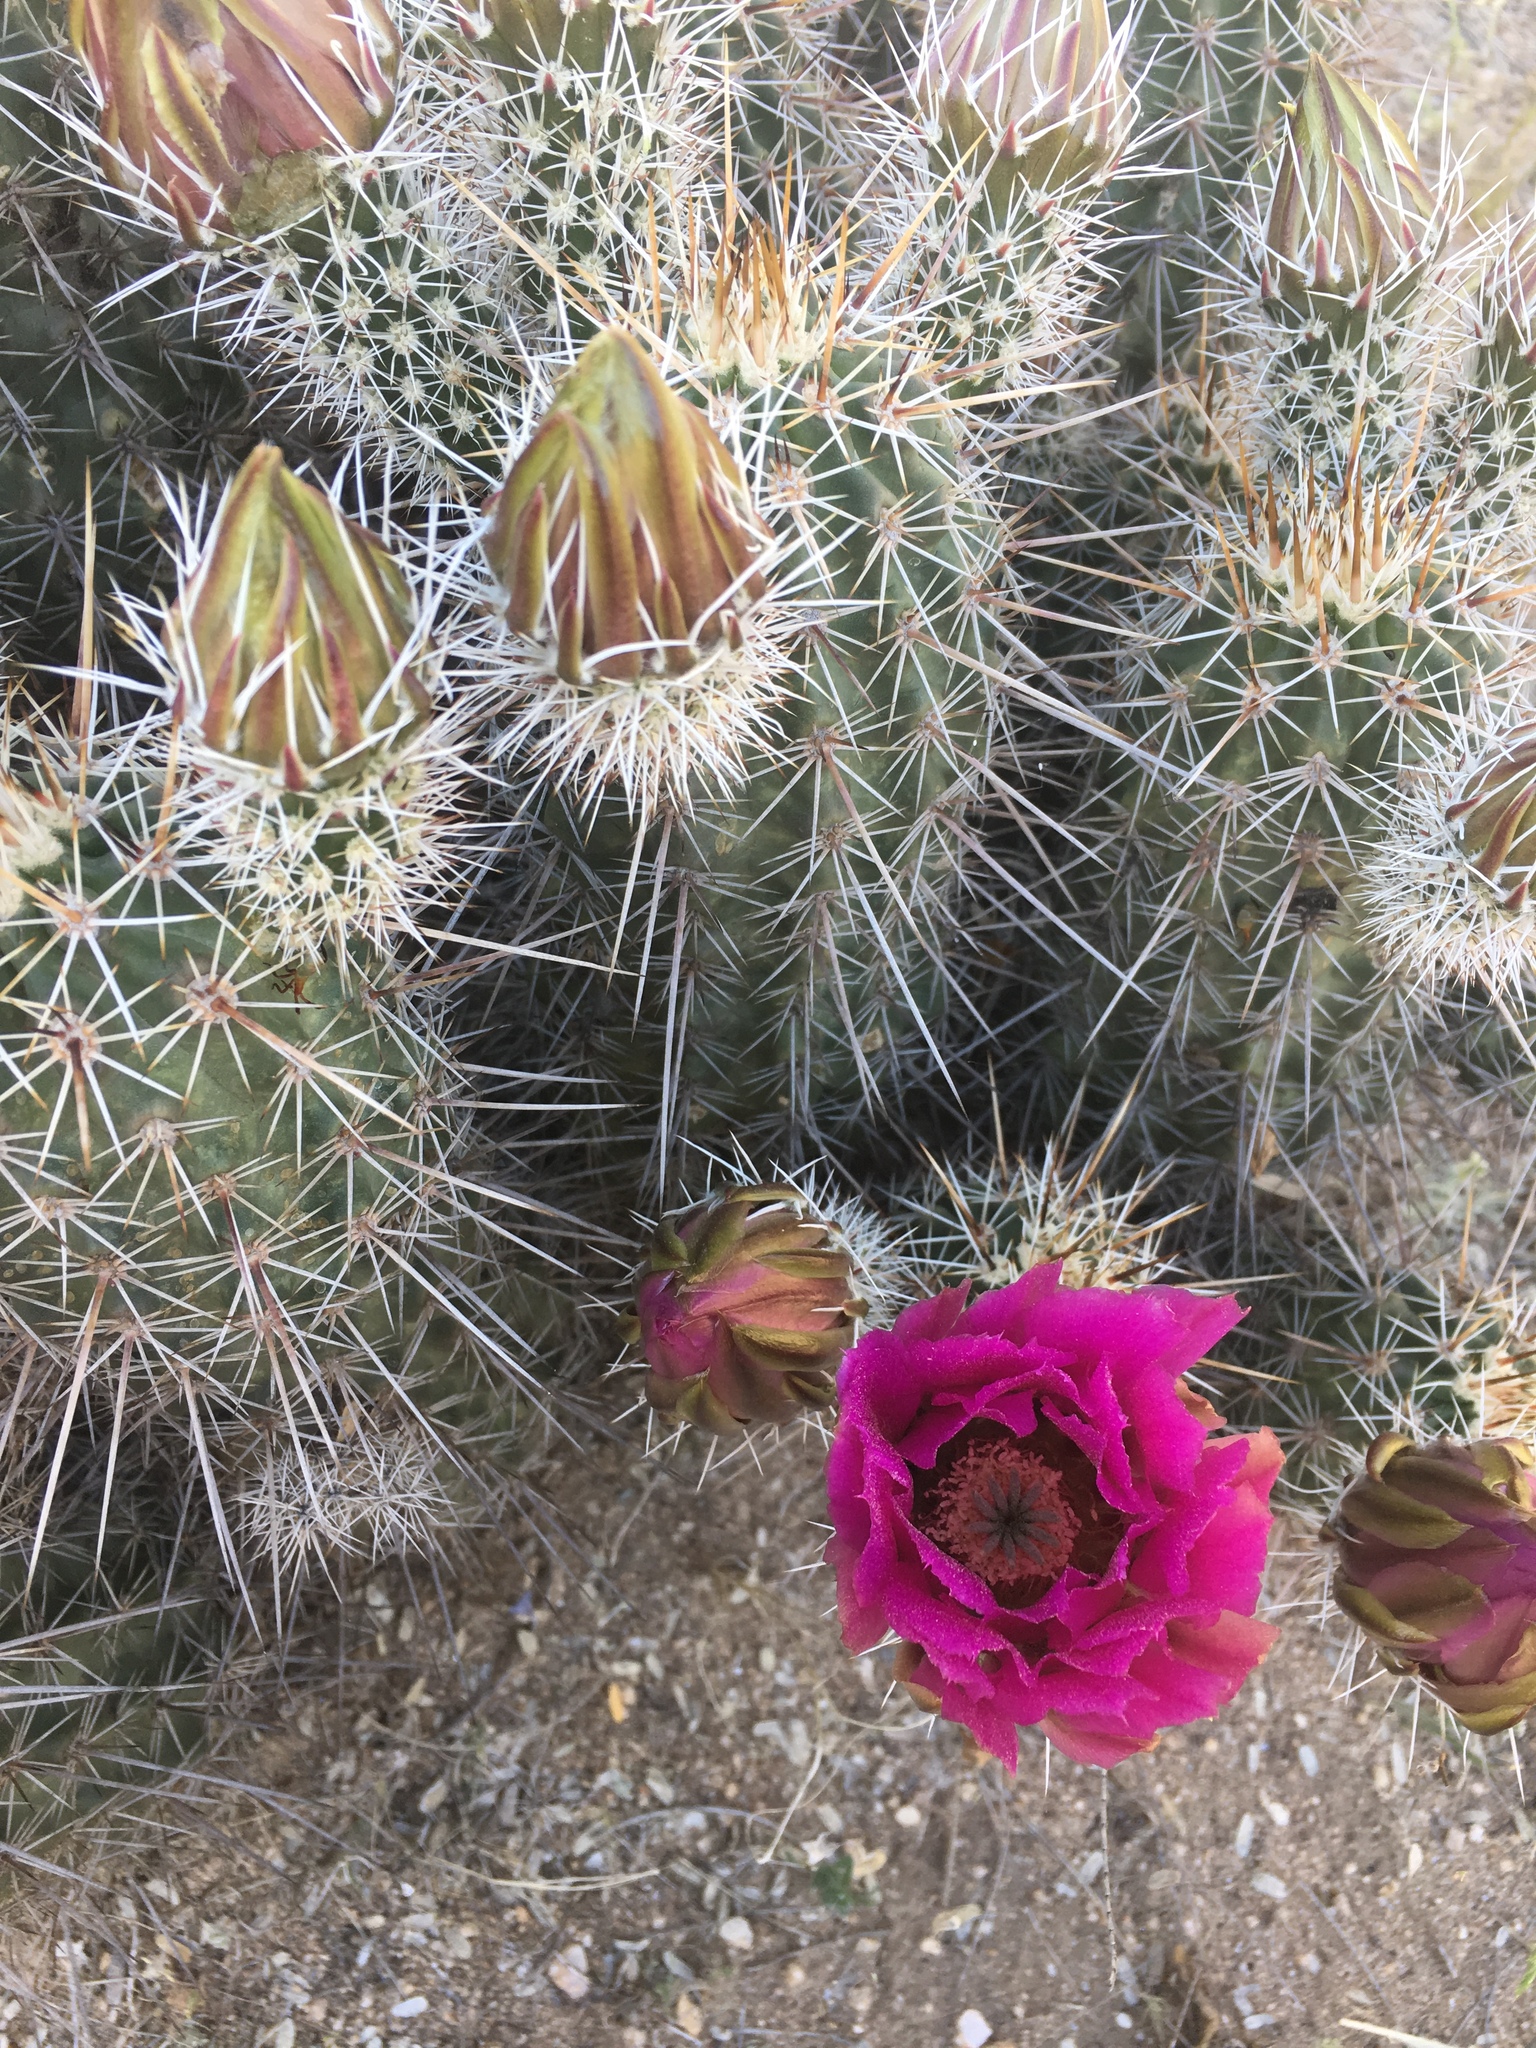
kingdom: Plantae
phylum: Tracheophyta
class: Magnoliopsida
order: Caryophyllales
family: Cactaceae
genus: Echinocereus
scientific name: Echinocereus fasciculatus
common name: Bundle hedgehog
